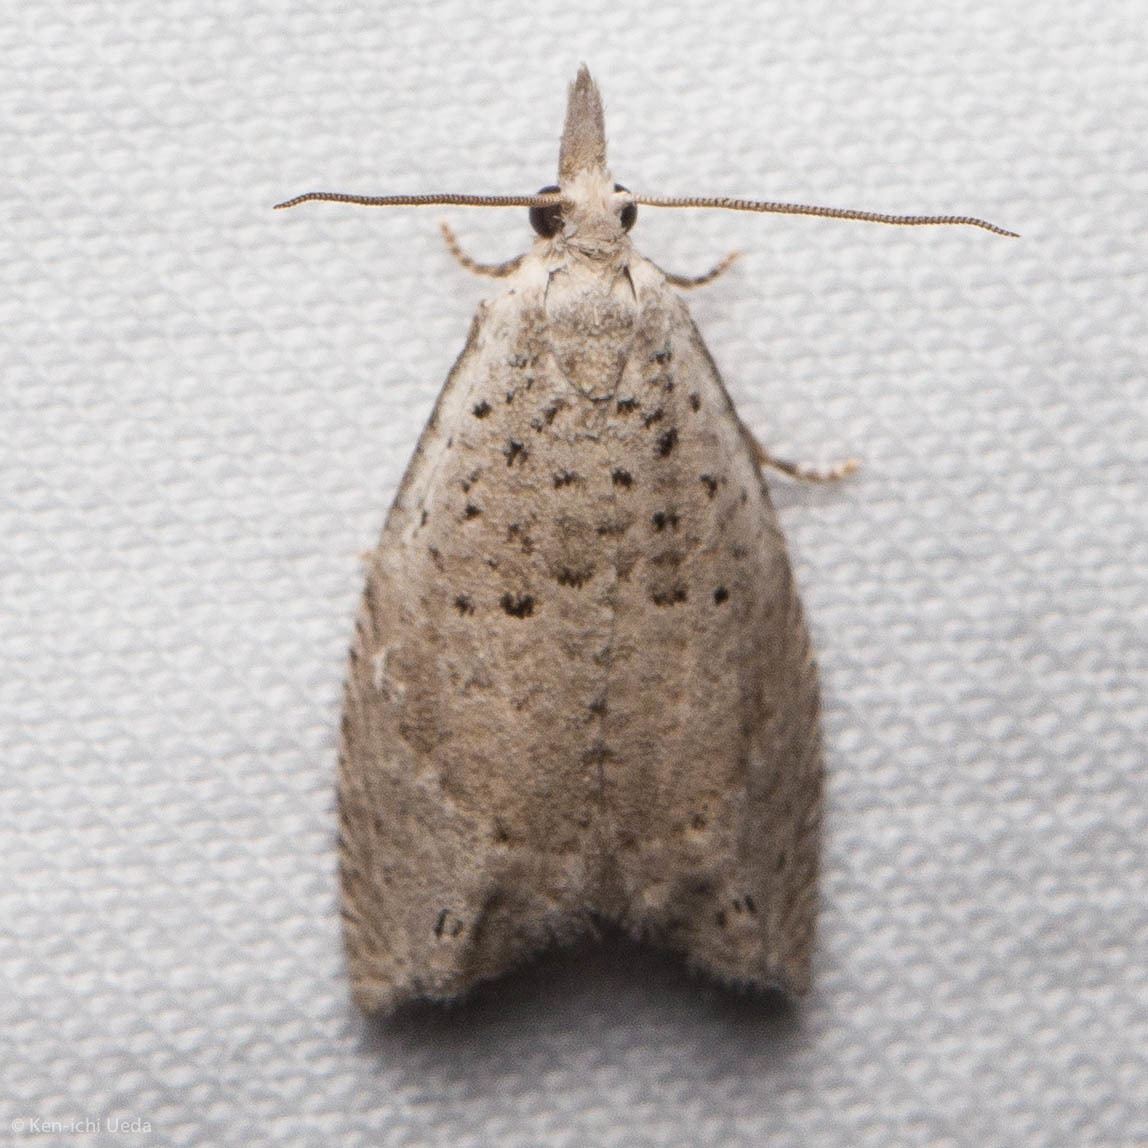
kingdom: Animalia
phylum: Arthropoda
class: Insecta
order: Lepidoptera
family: Tortricidae
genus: Epinotia
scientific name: Epinotia subplicana
